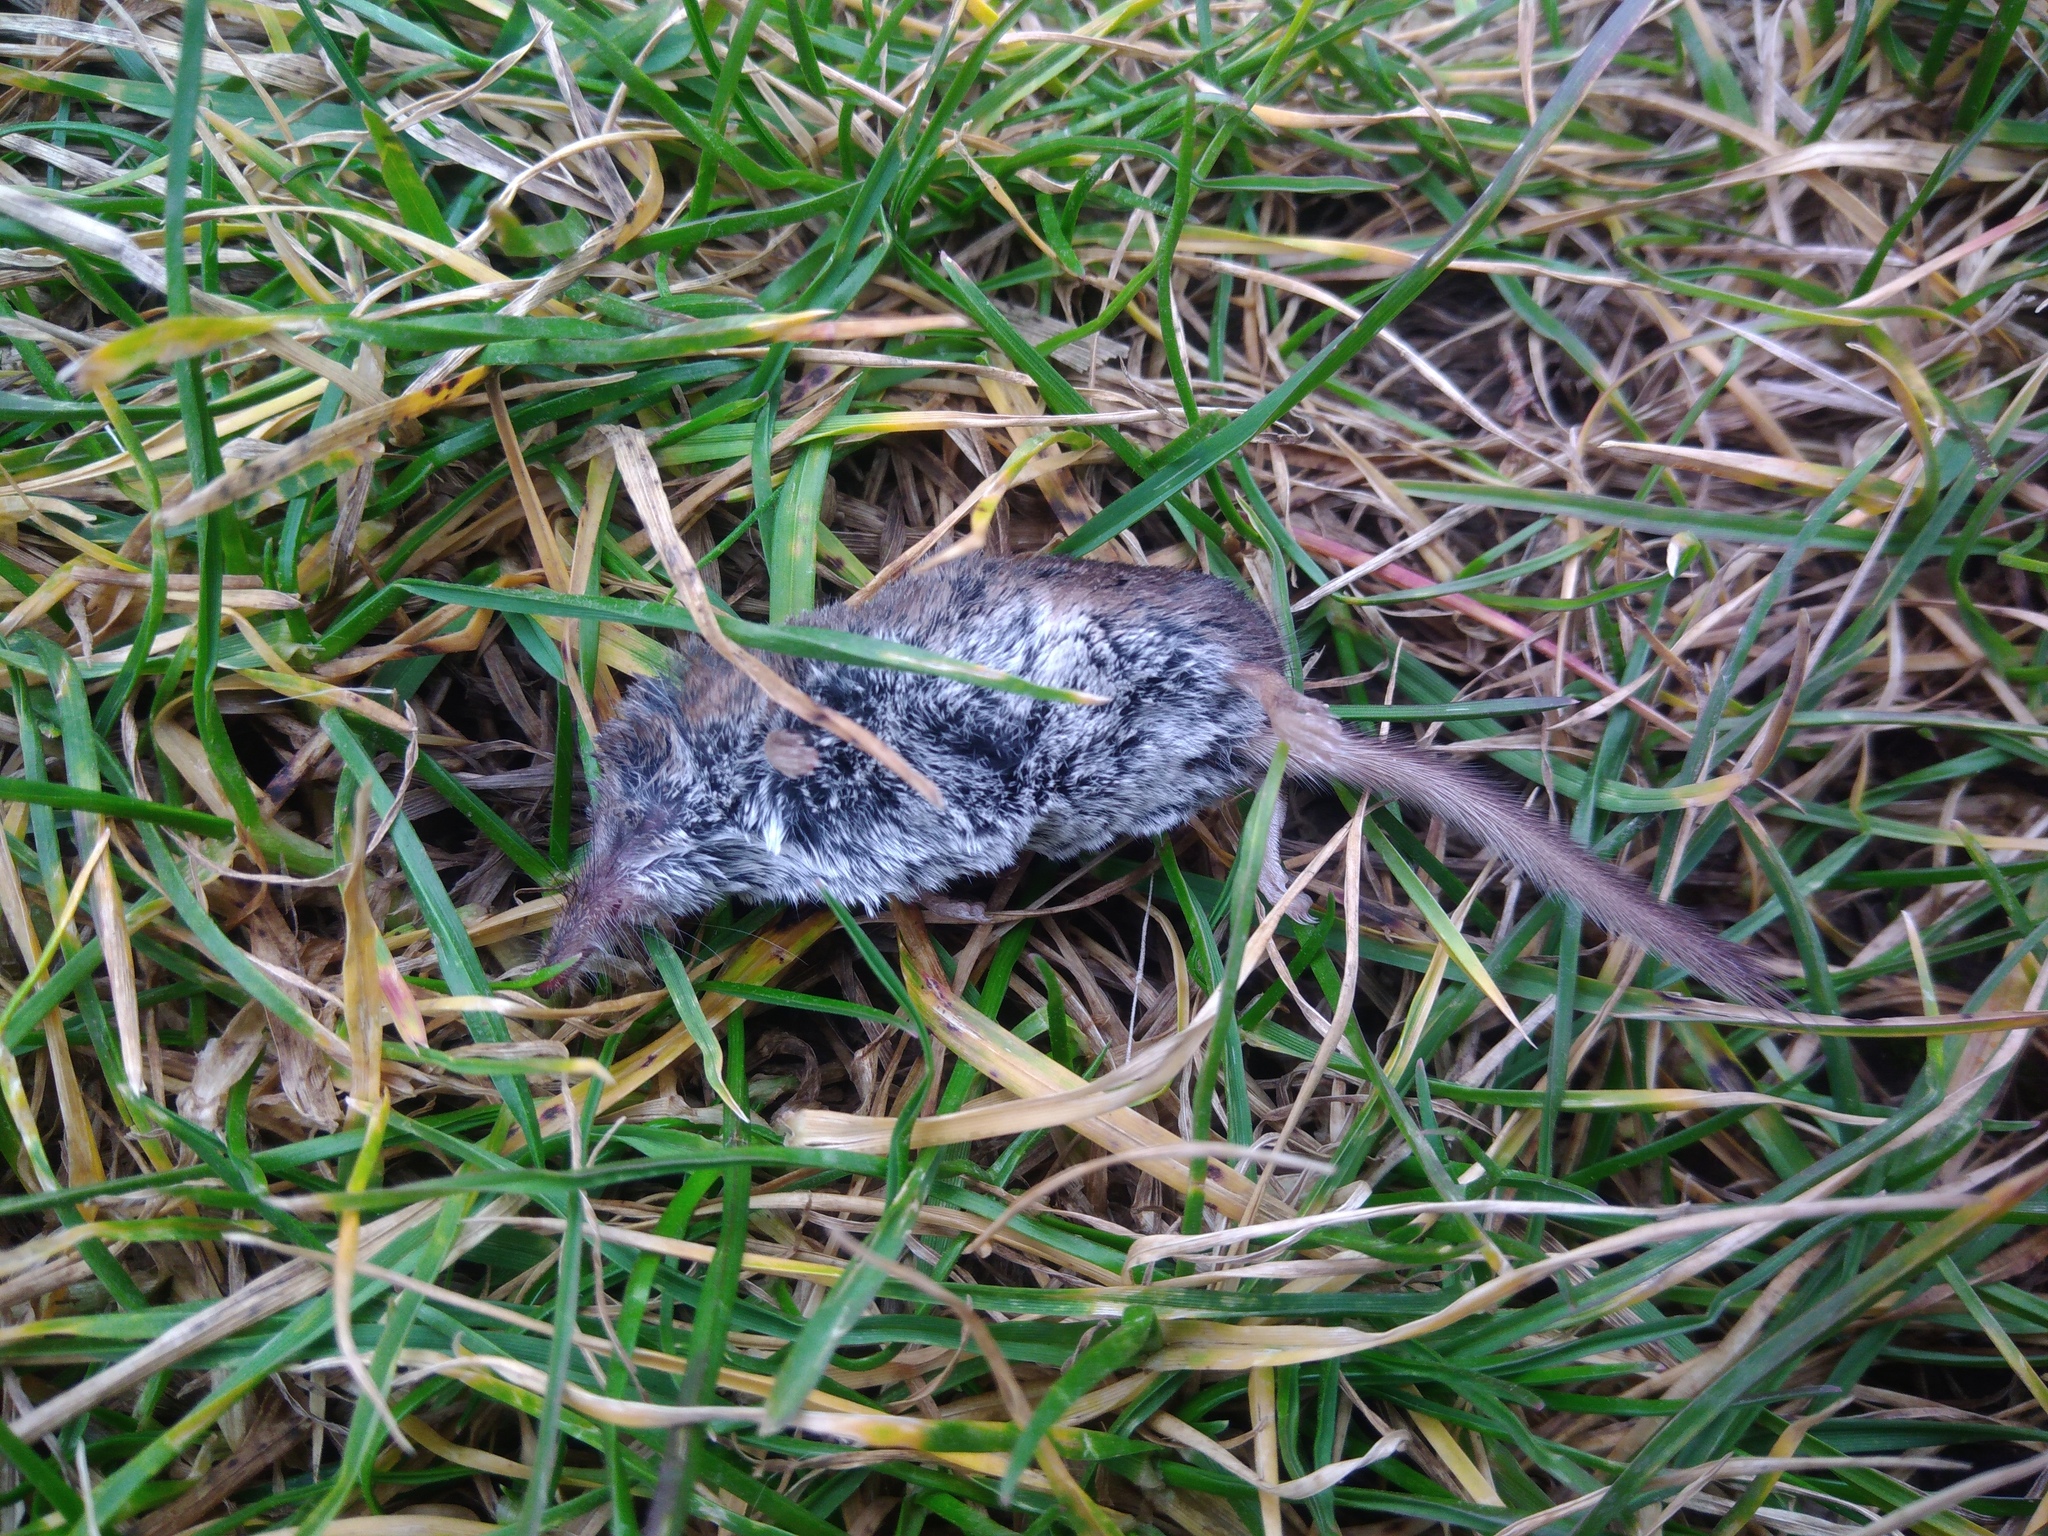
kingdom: Animalia
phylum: Chordata
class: Mammalia
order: Soricomorpha
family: Soricidae
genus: Sorex
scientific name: Sorex minutus
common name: Eurasian pygmy shrew
